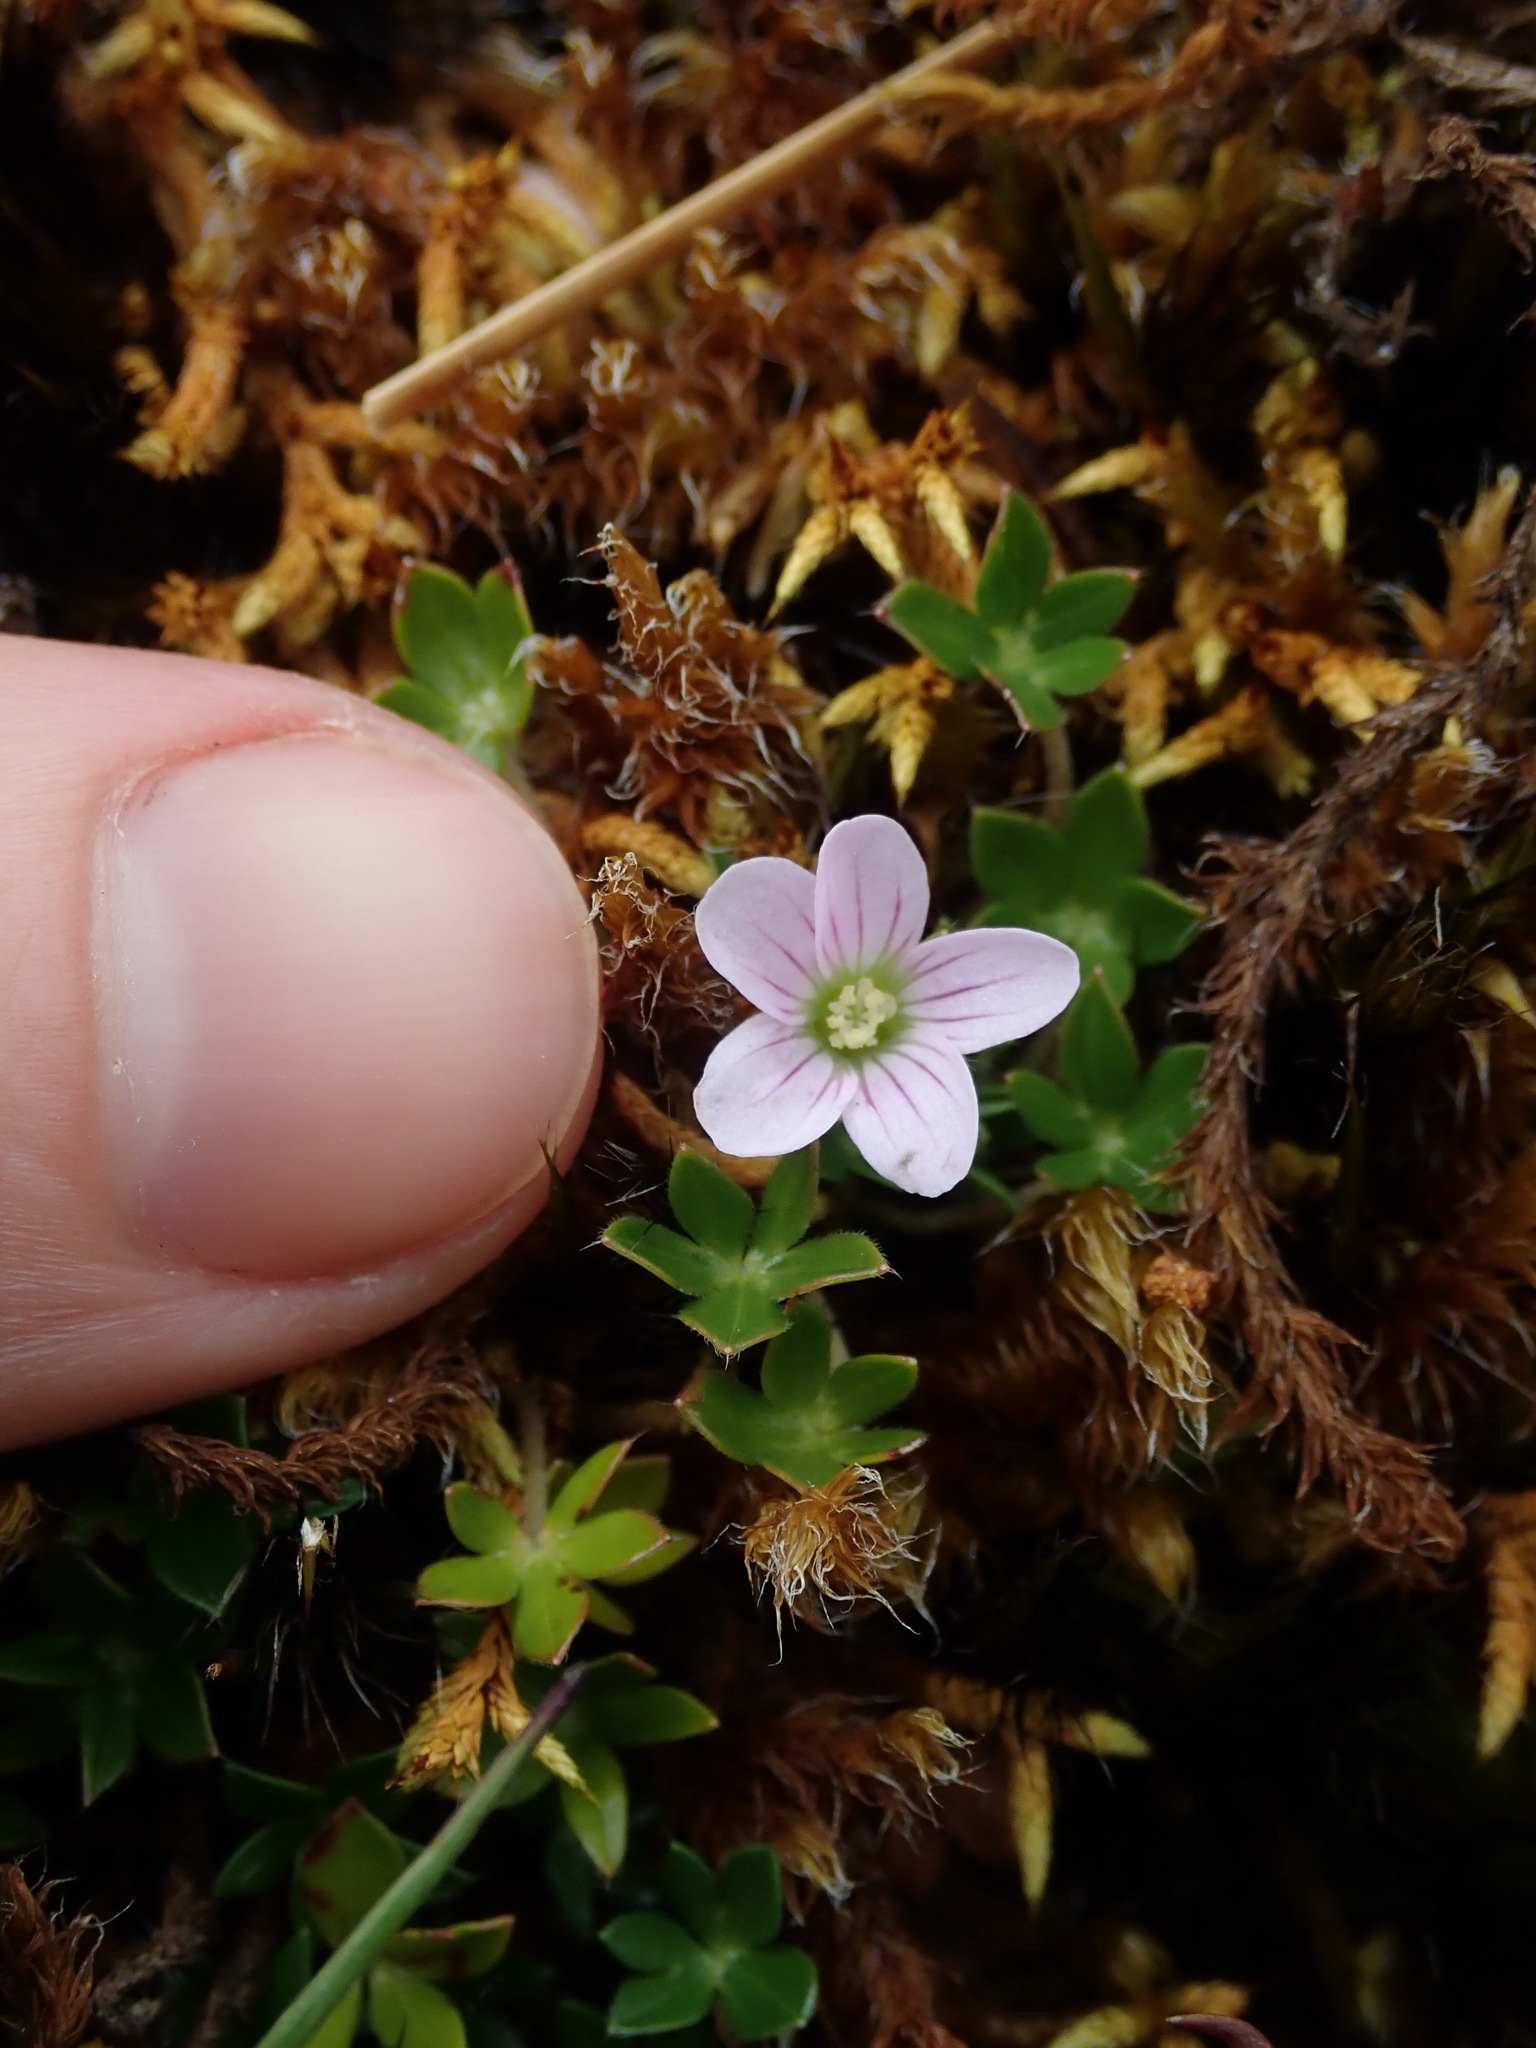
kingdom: Plantae
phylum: Tracheophyta
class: Magnoliopsida
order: Geraniales
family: Geraniaceae
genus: Geranium
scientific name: Geranium sibbaldioides
